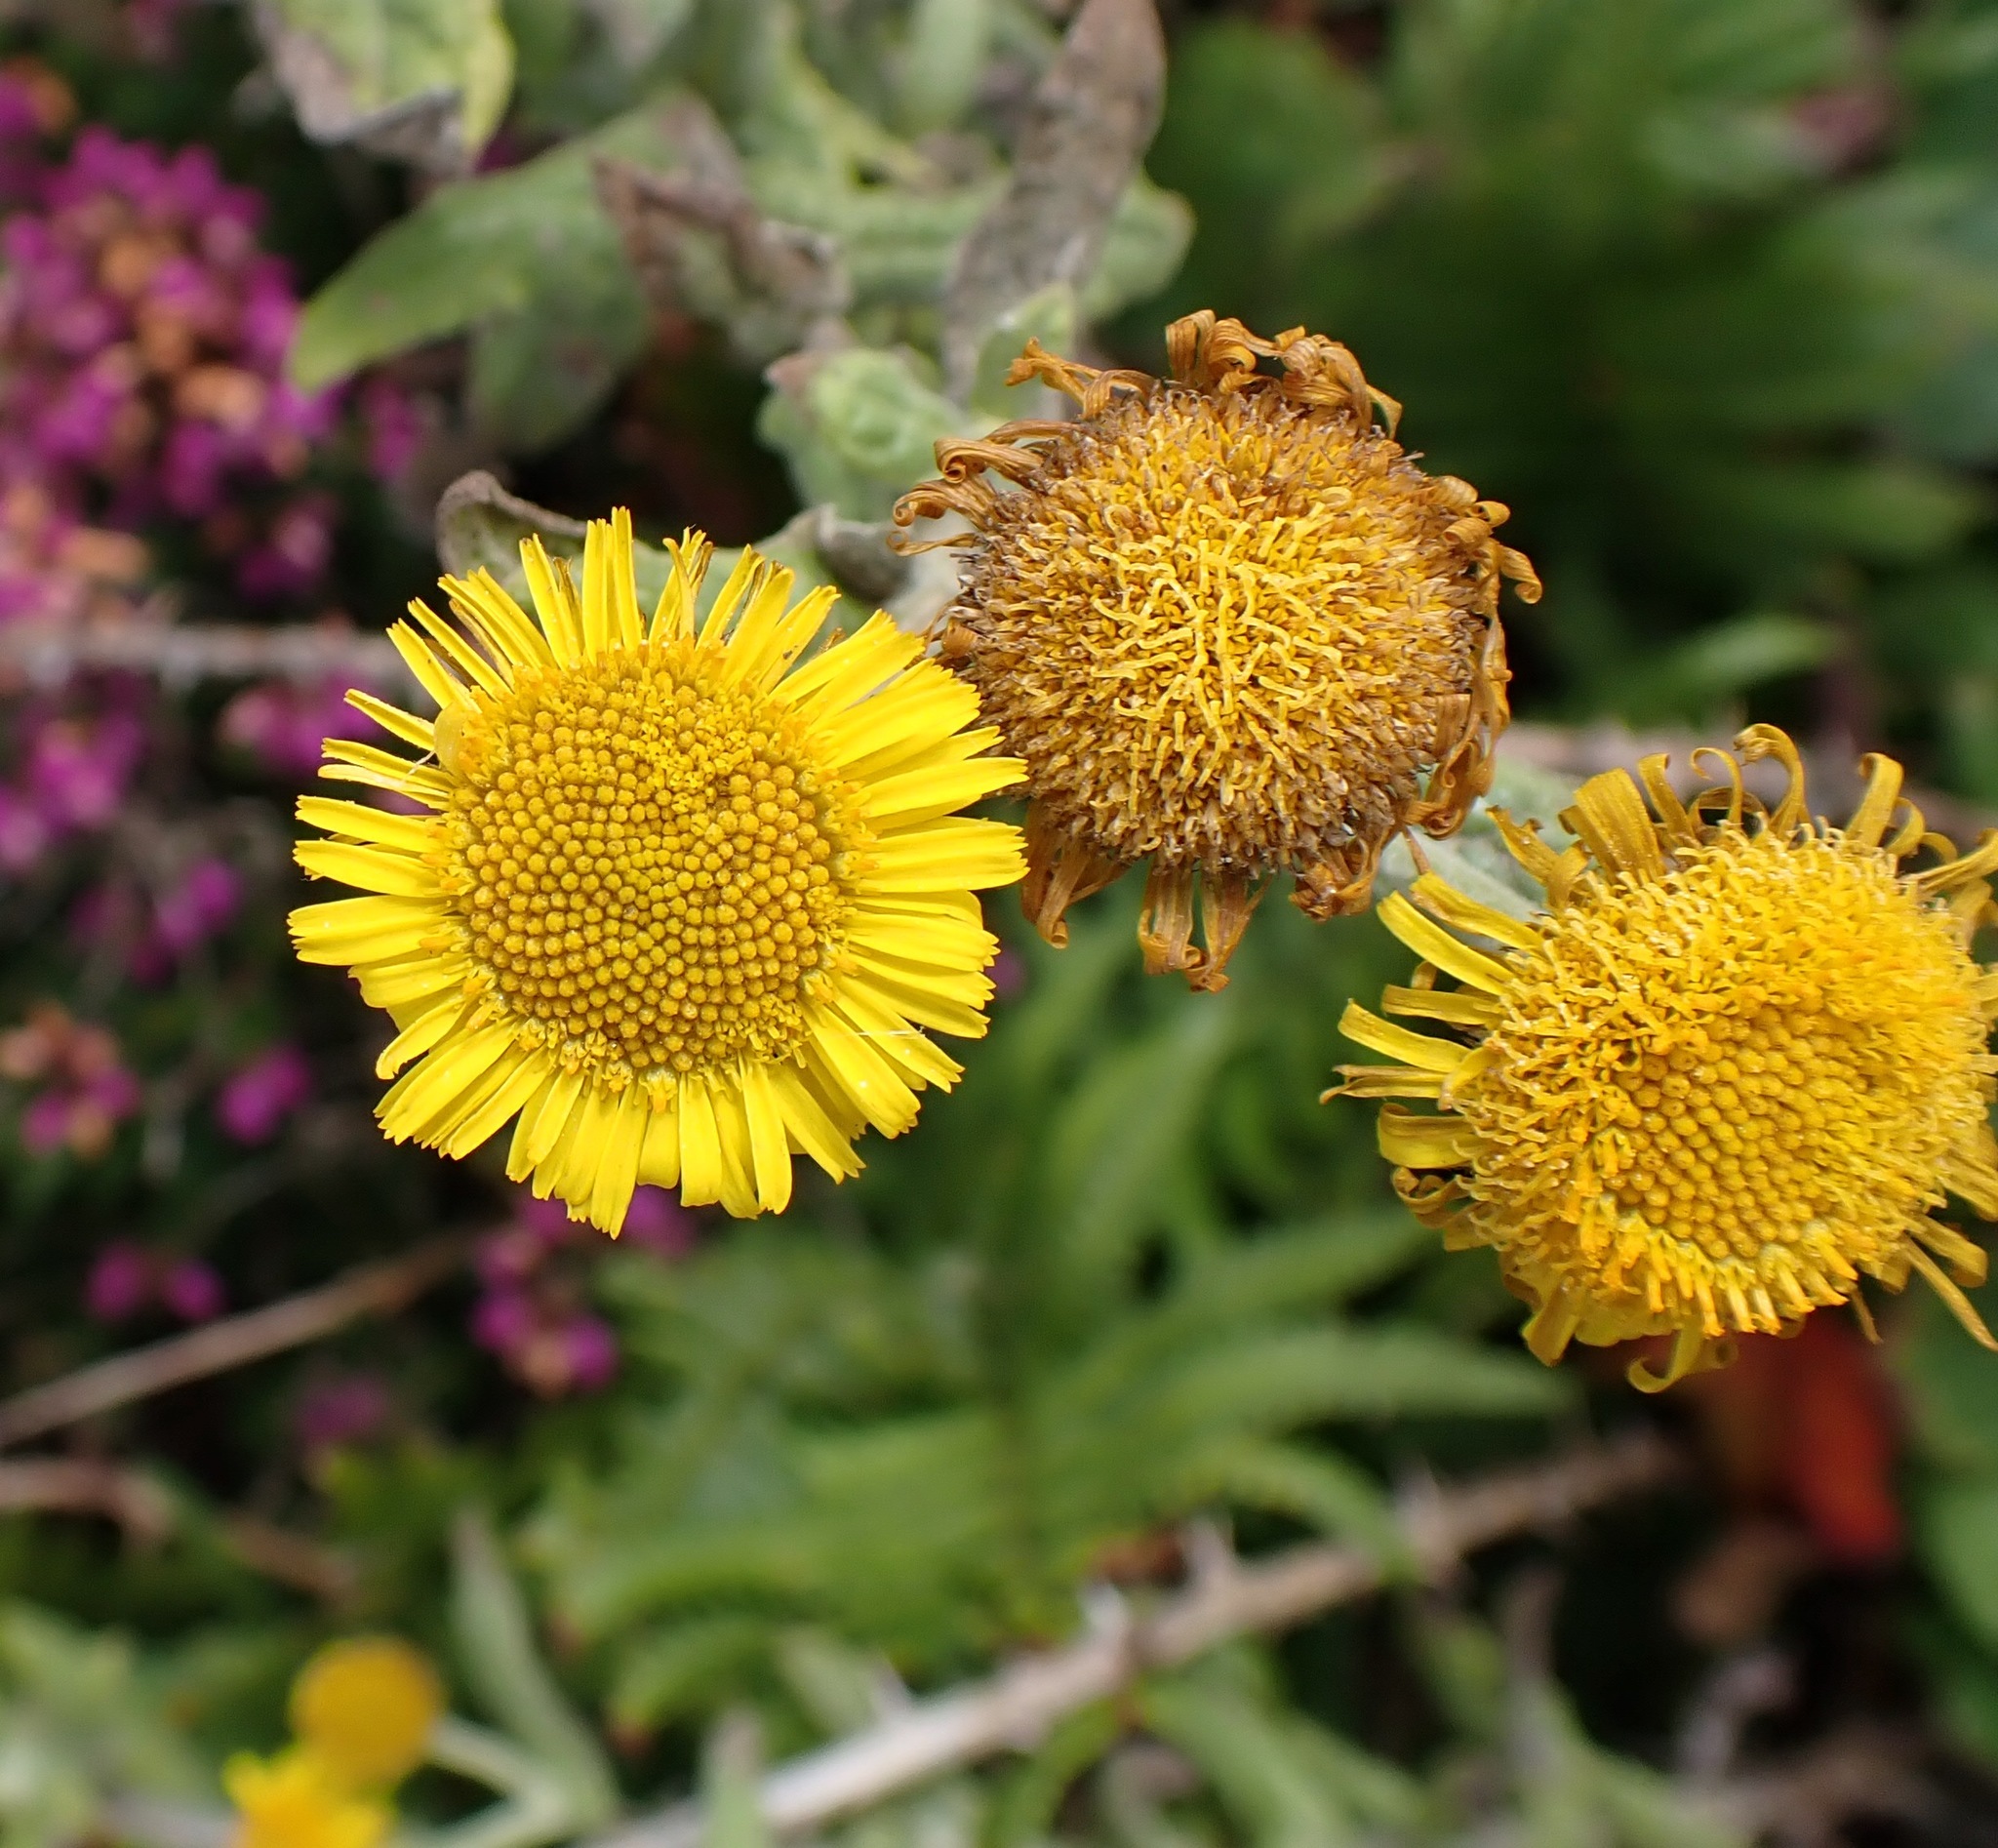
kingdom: Plantae
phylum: Tracheophyta
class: Magnoliopsida
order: Asterales
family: Asteraceae
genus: Pulicaria
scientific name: Pulicaria dysenterica
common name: Common fleabane
